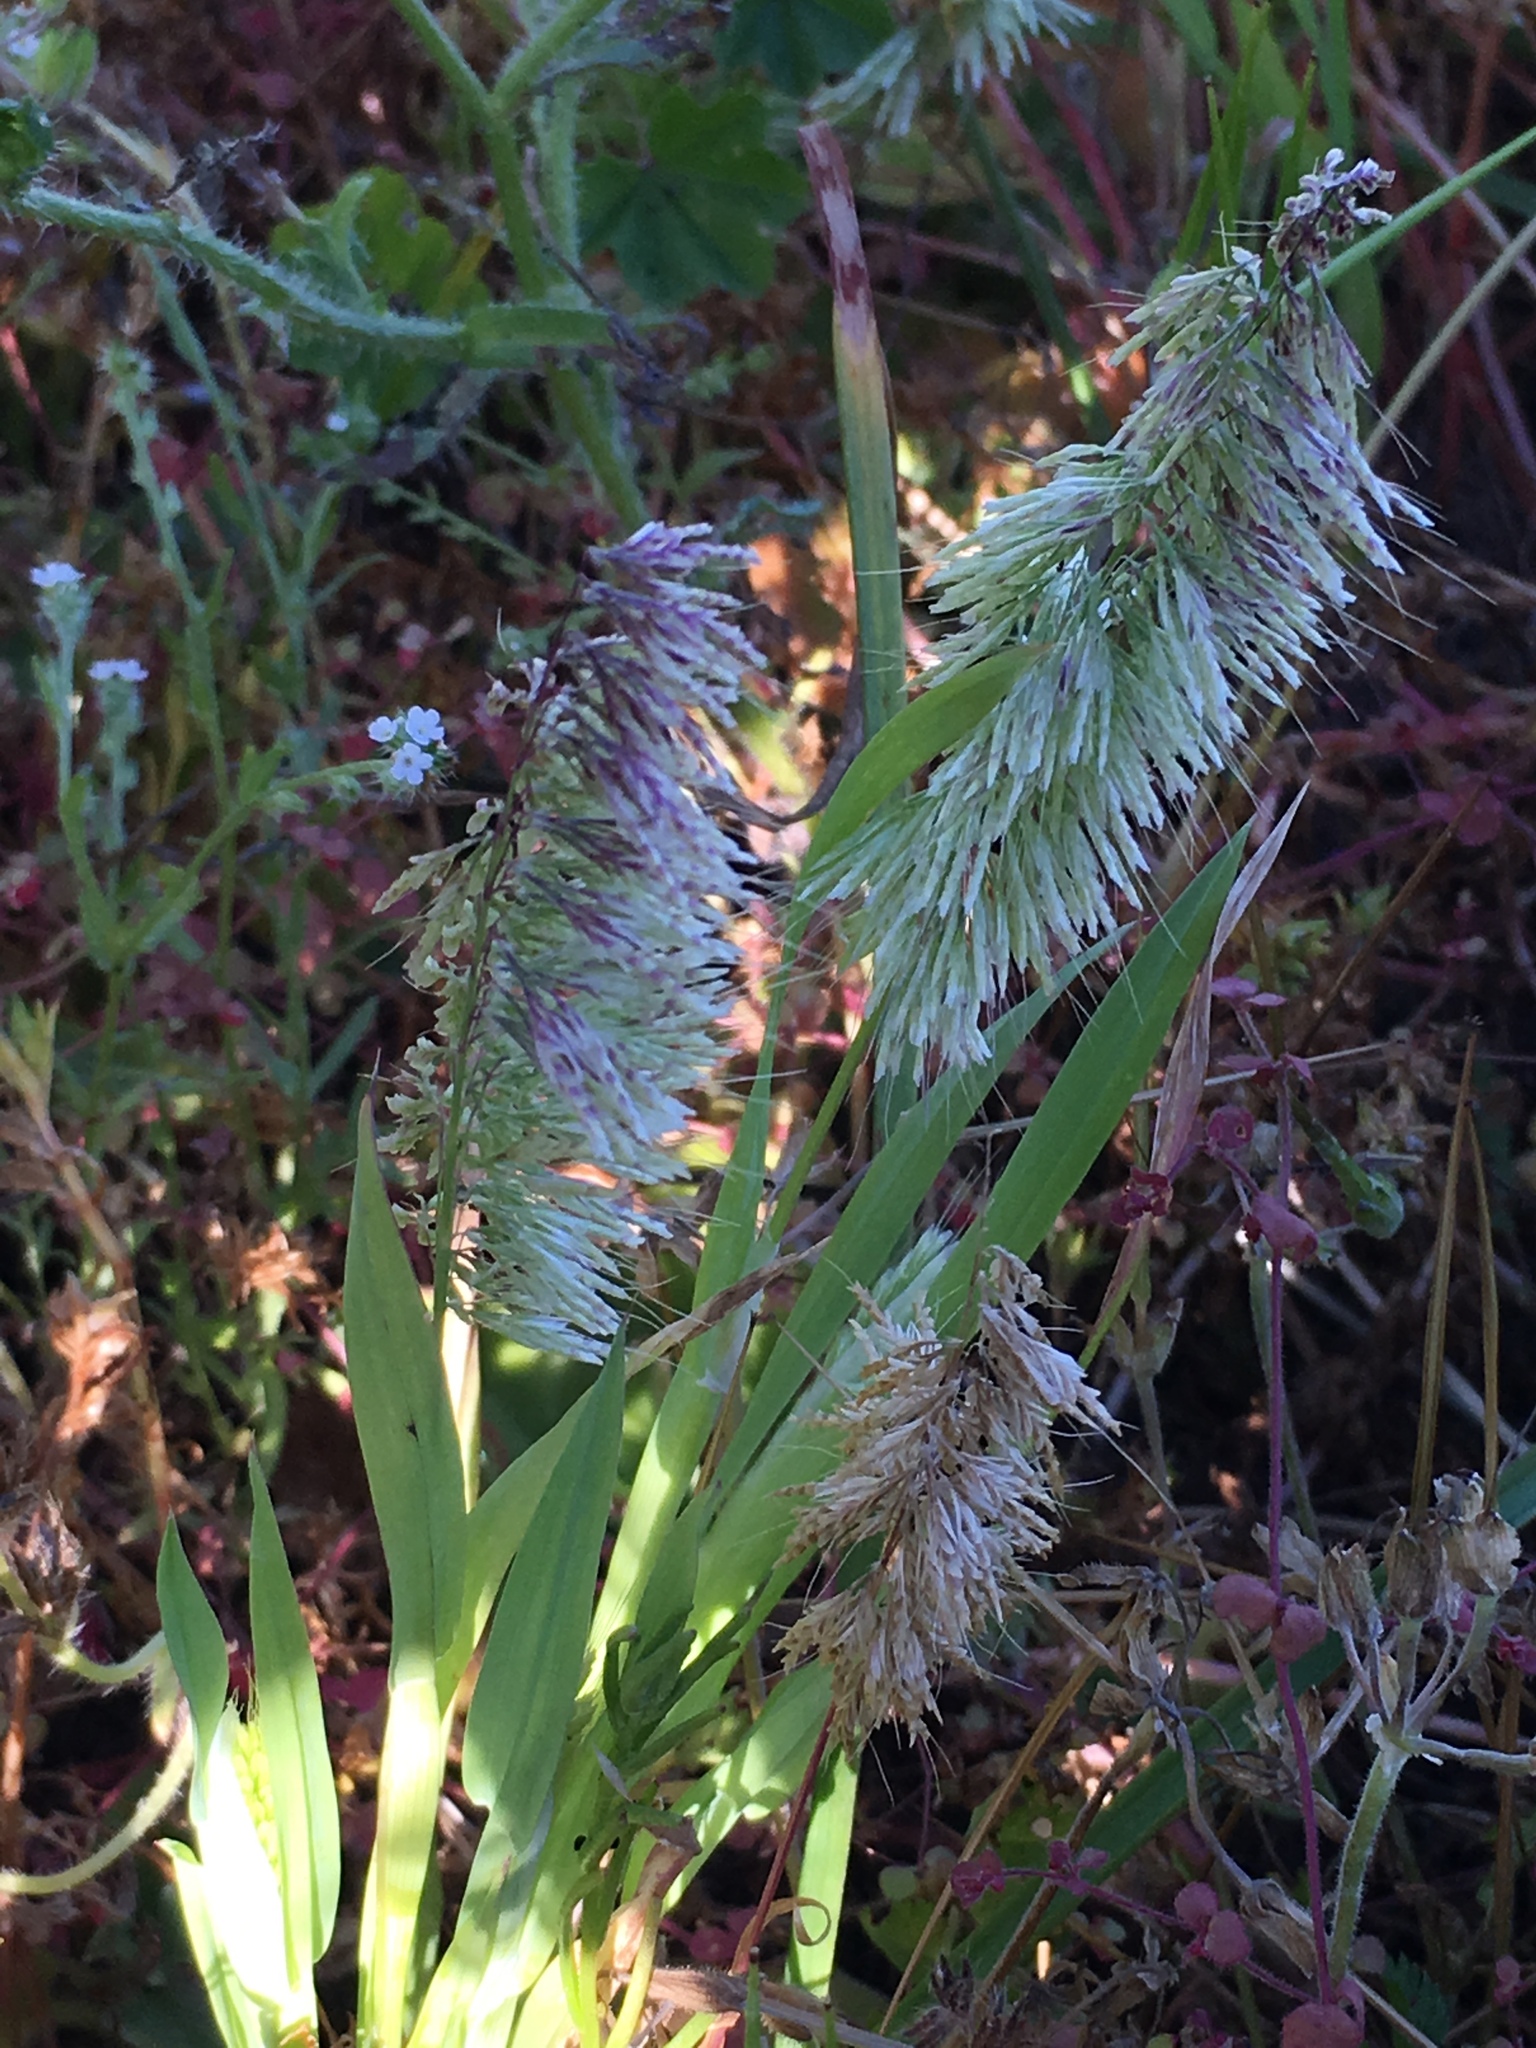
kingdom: Plantae
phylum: Tracheophyta
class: Liliopsida
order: Poales
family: Poaceae
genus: Lamarckia
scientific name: Lamarckia aurea
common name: Golden dog's-tail
